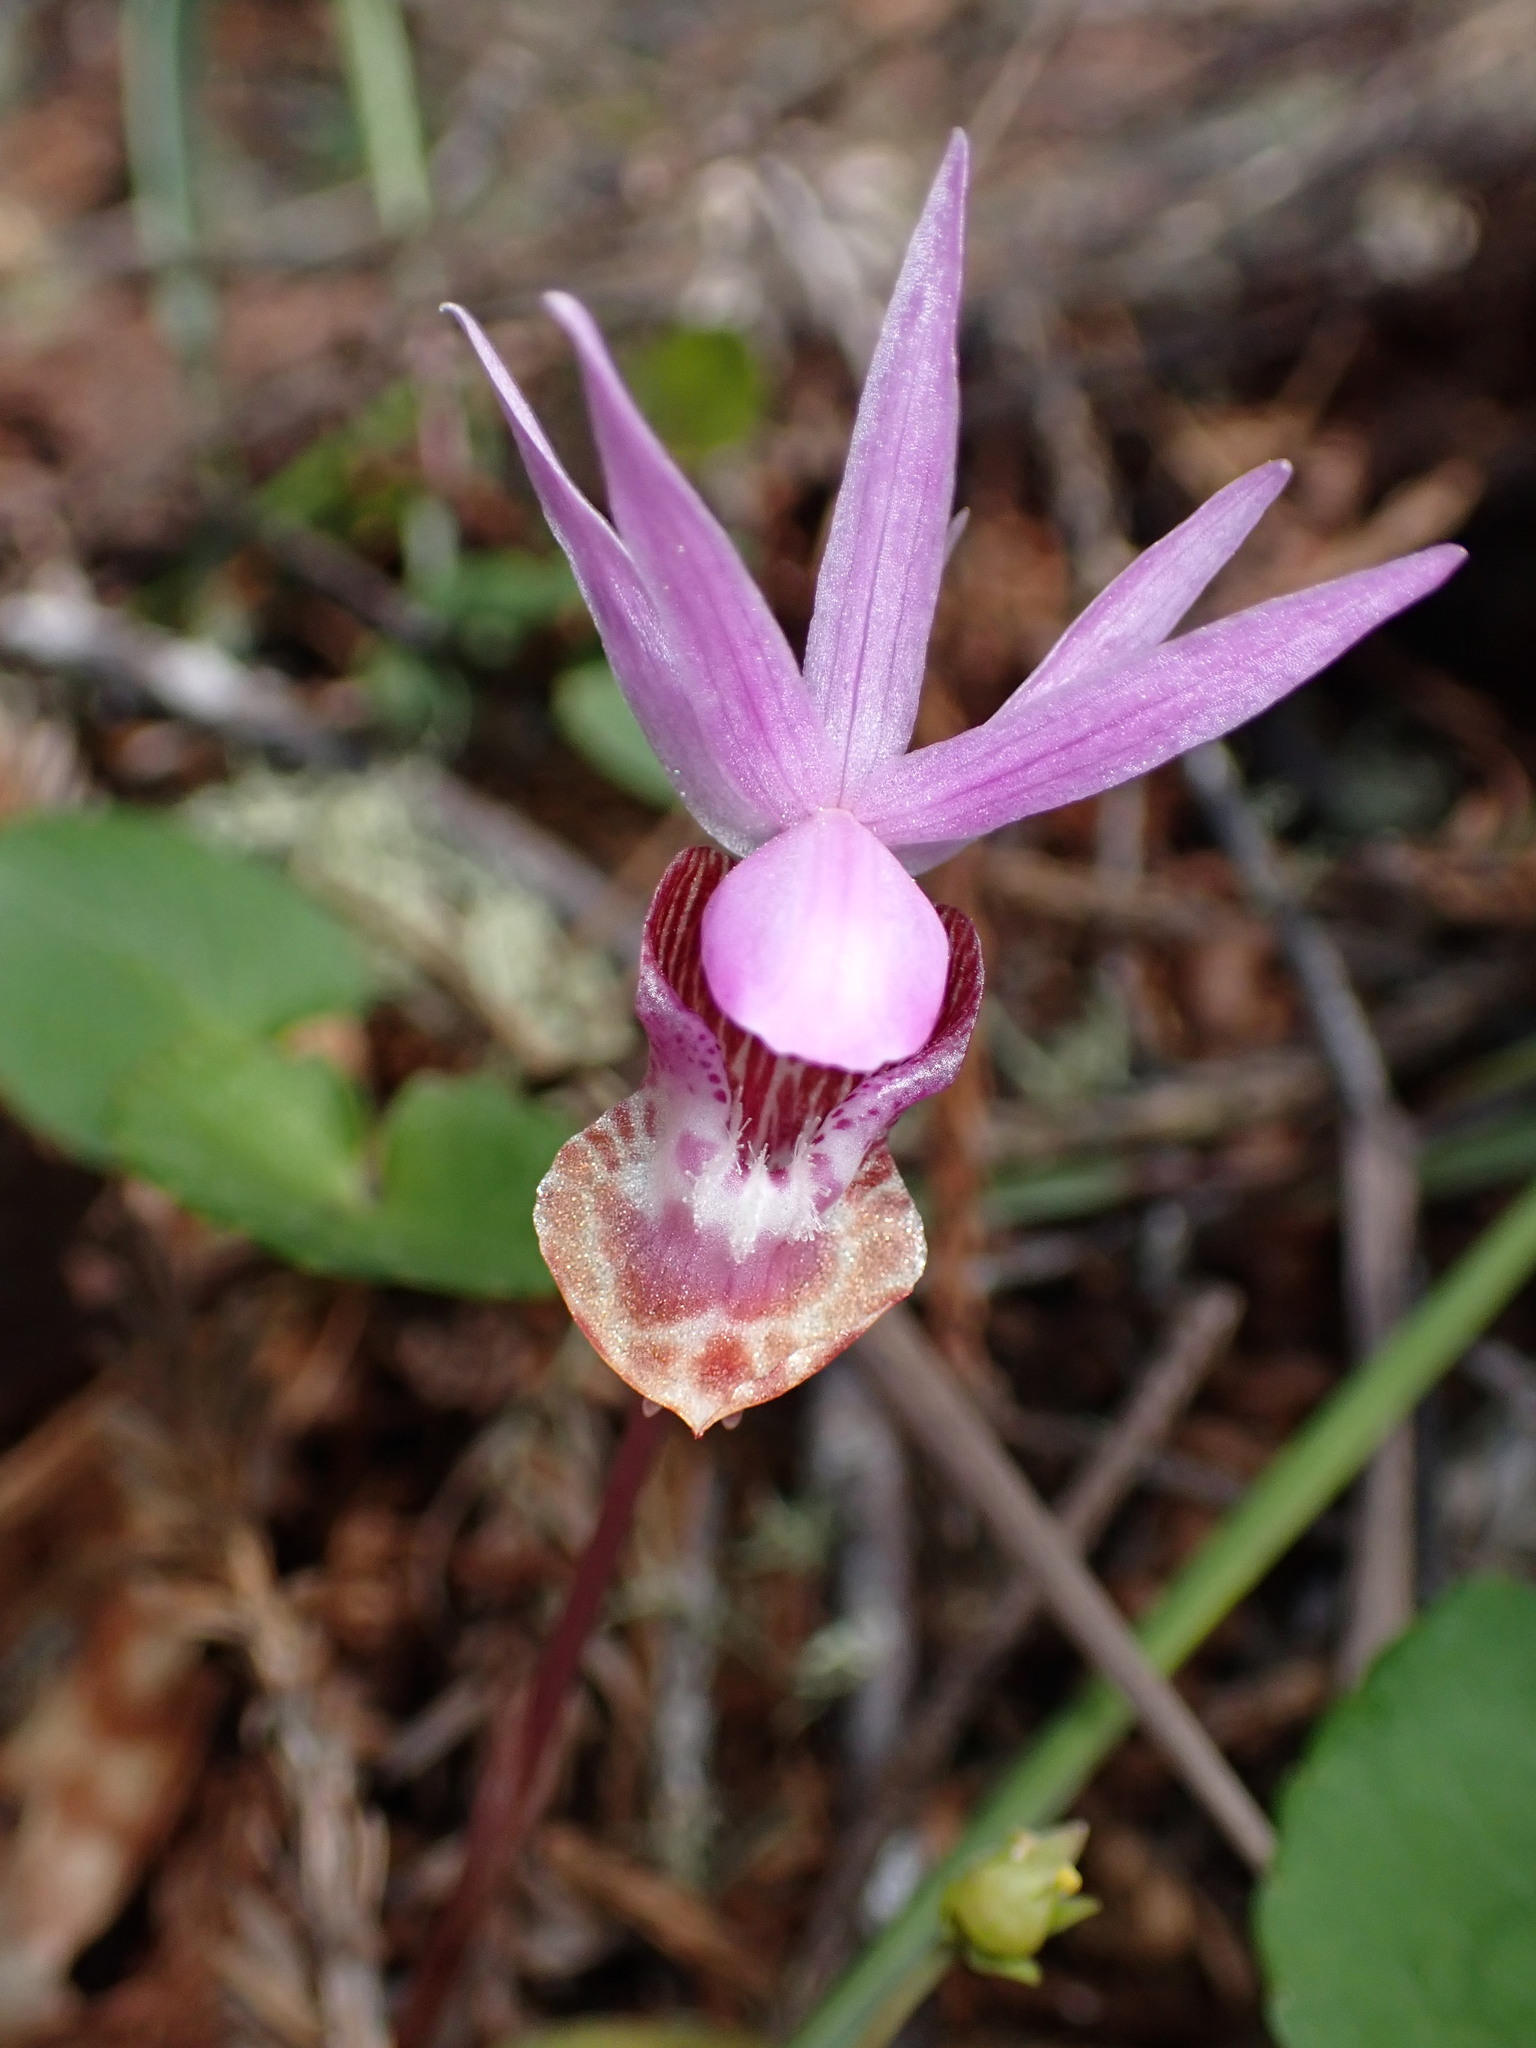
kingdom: Plantae
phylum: Tracheophyta
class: Liliopsida
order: Asparagales
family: Orchidaceae
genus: Calypso
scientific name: Calypso bulbosa
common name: Calypso
